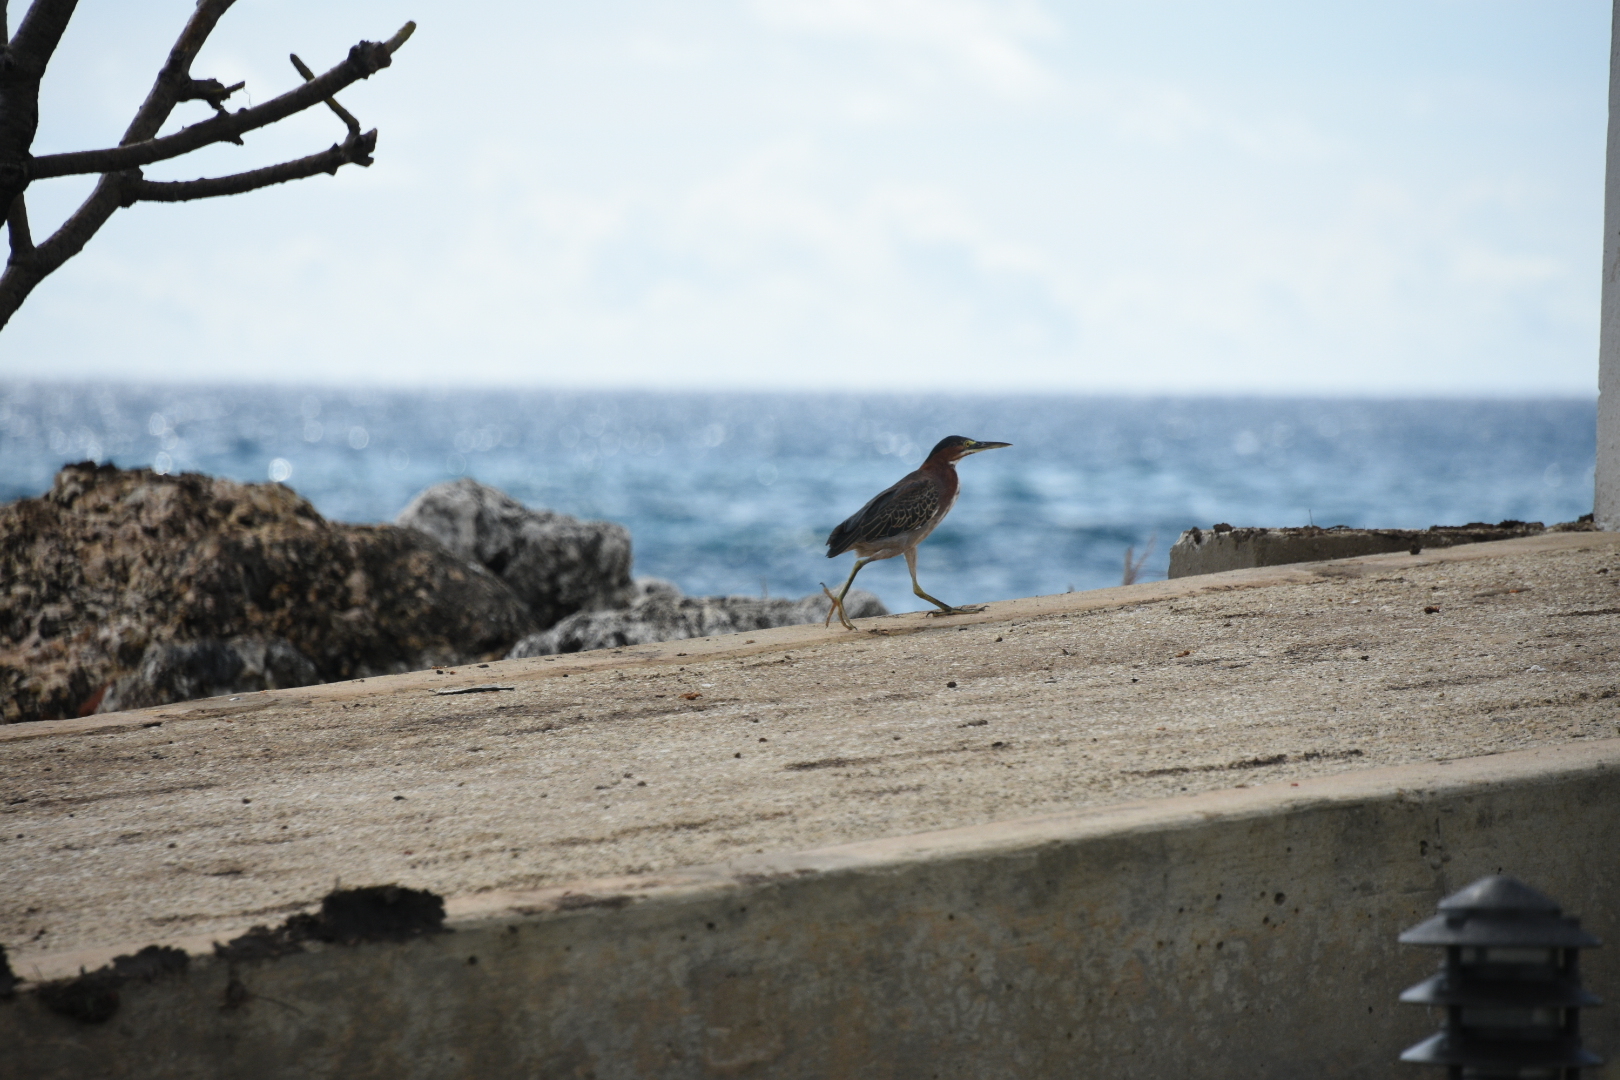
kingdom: Animalia
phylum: Chordata
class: Aves
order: Pelecaniformes
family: Ardeidae
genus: Butorides
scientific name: Butorides virescens
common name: Green heron
